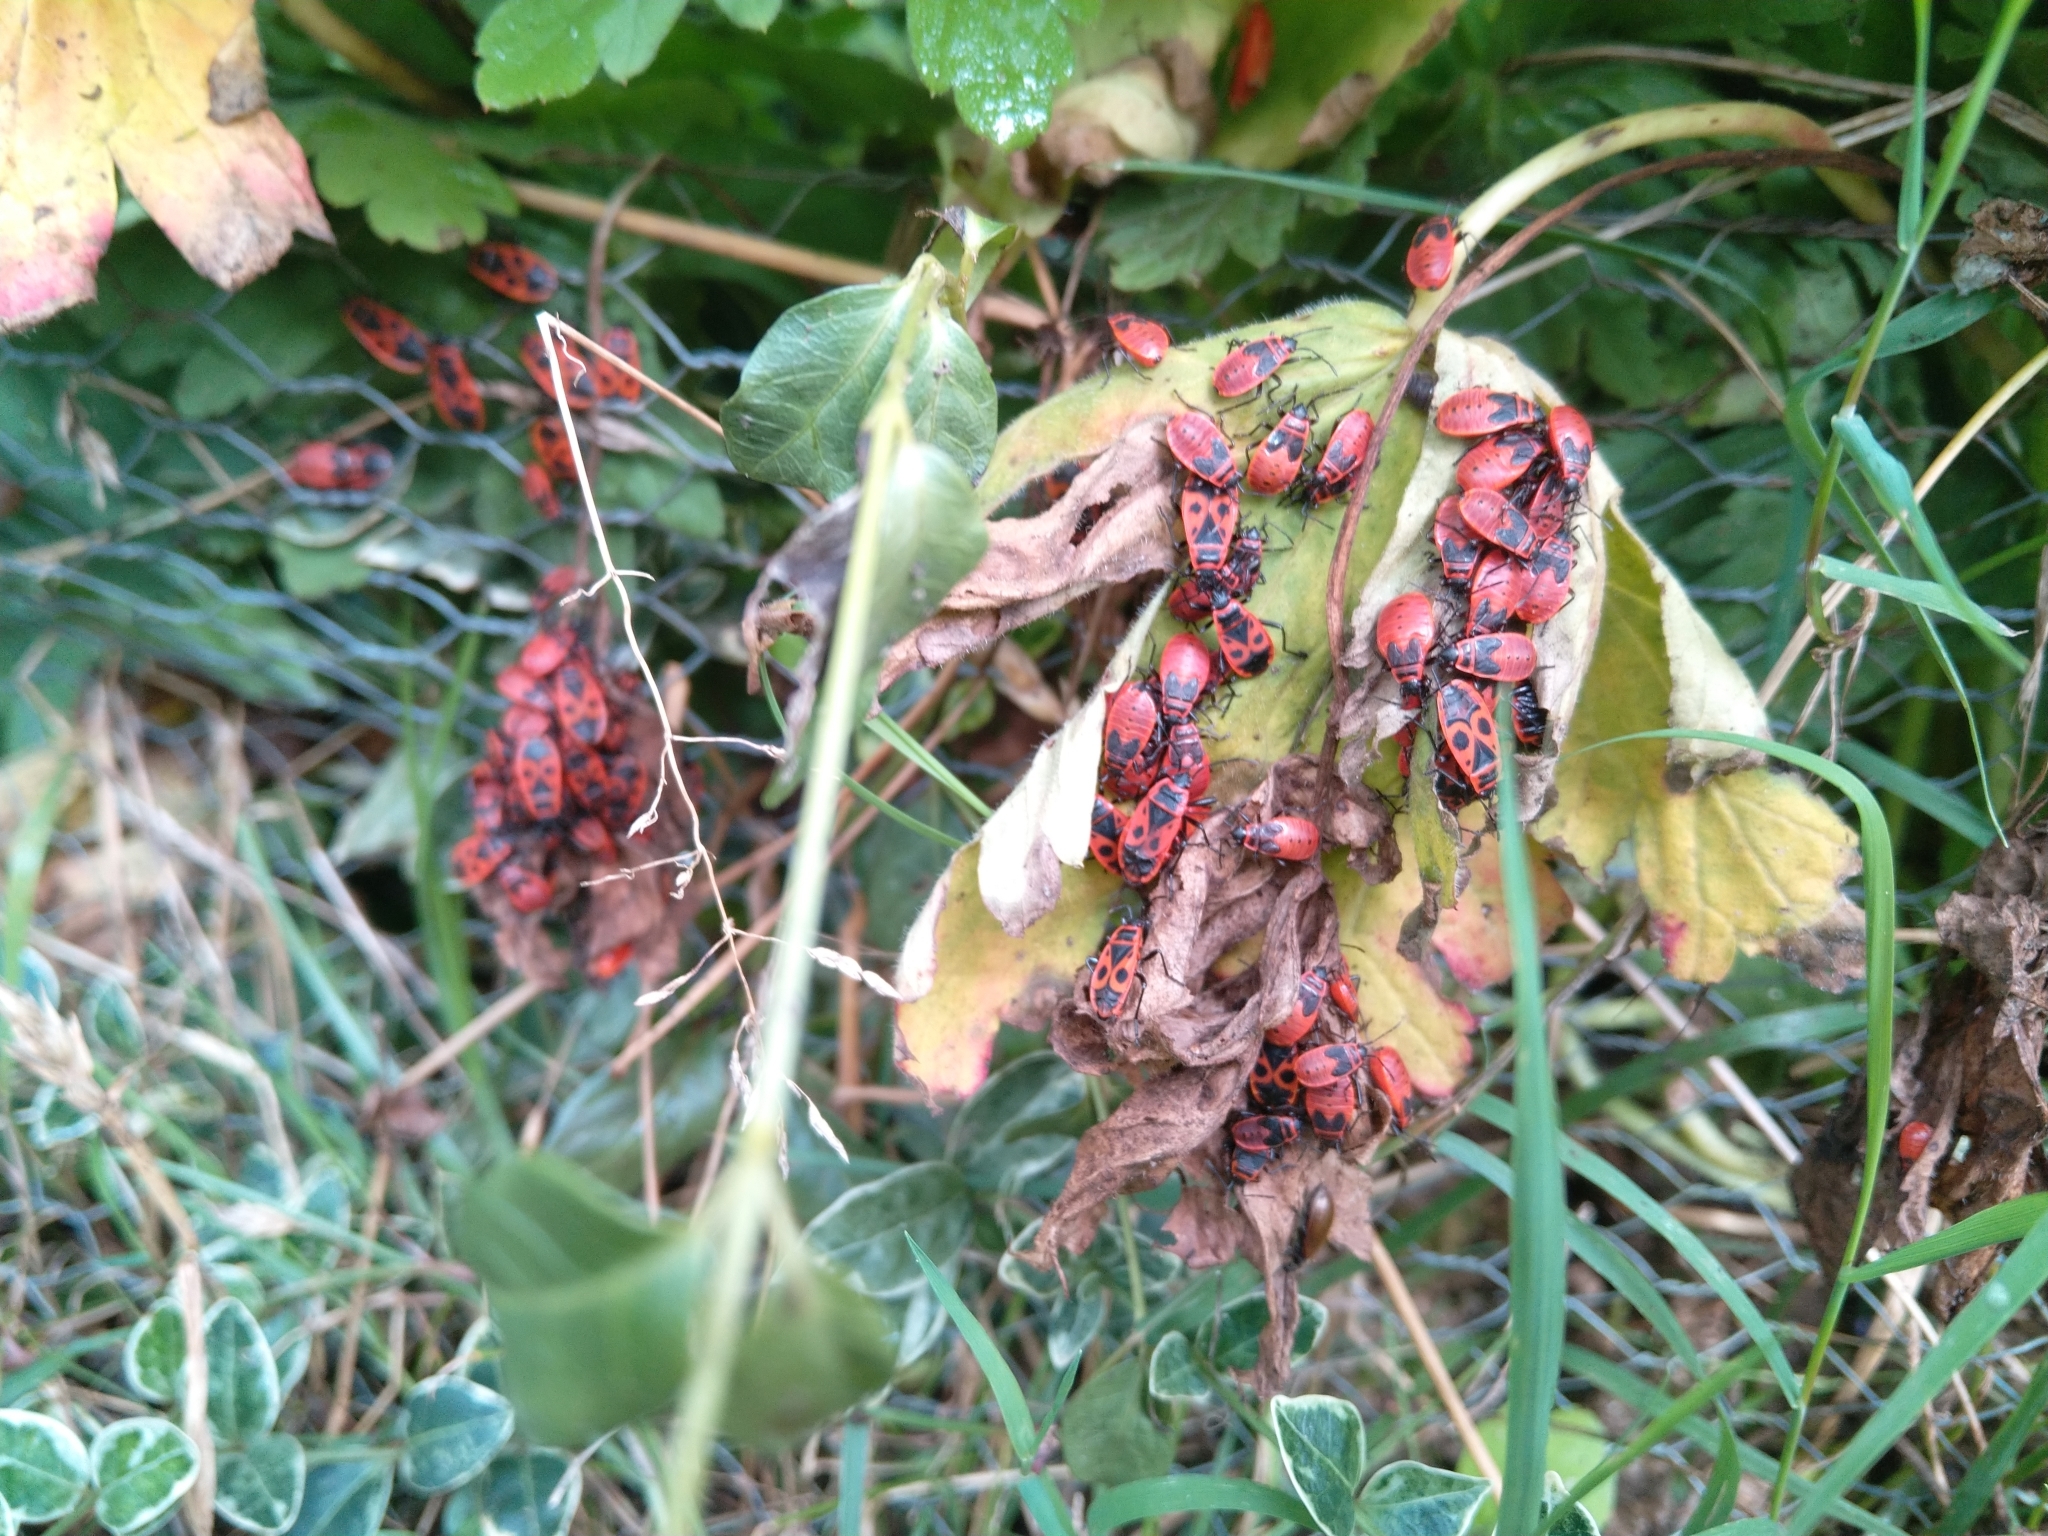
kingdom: Animalia
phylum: Arthropoda
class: Insecta
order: Hemiptera
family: Pyrrhocoridae
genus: Pyrrhocoris
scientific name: Pyrrhocoris apterus
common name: Firebug
